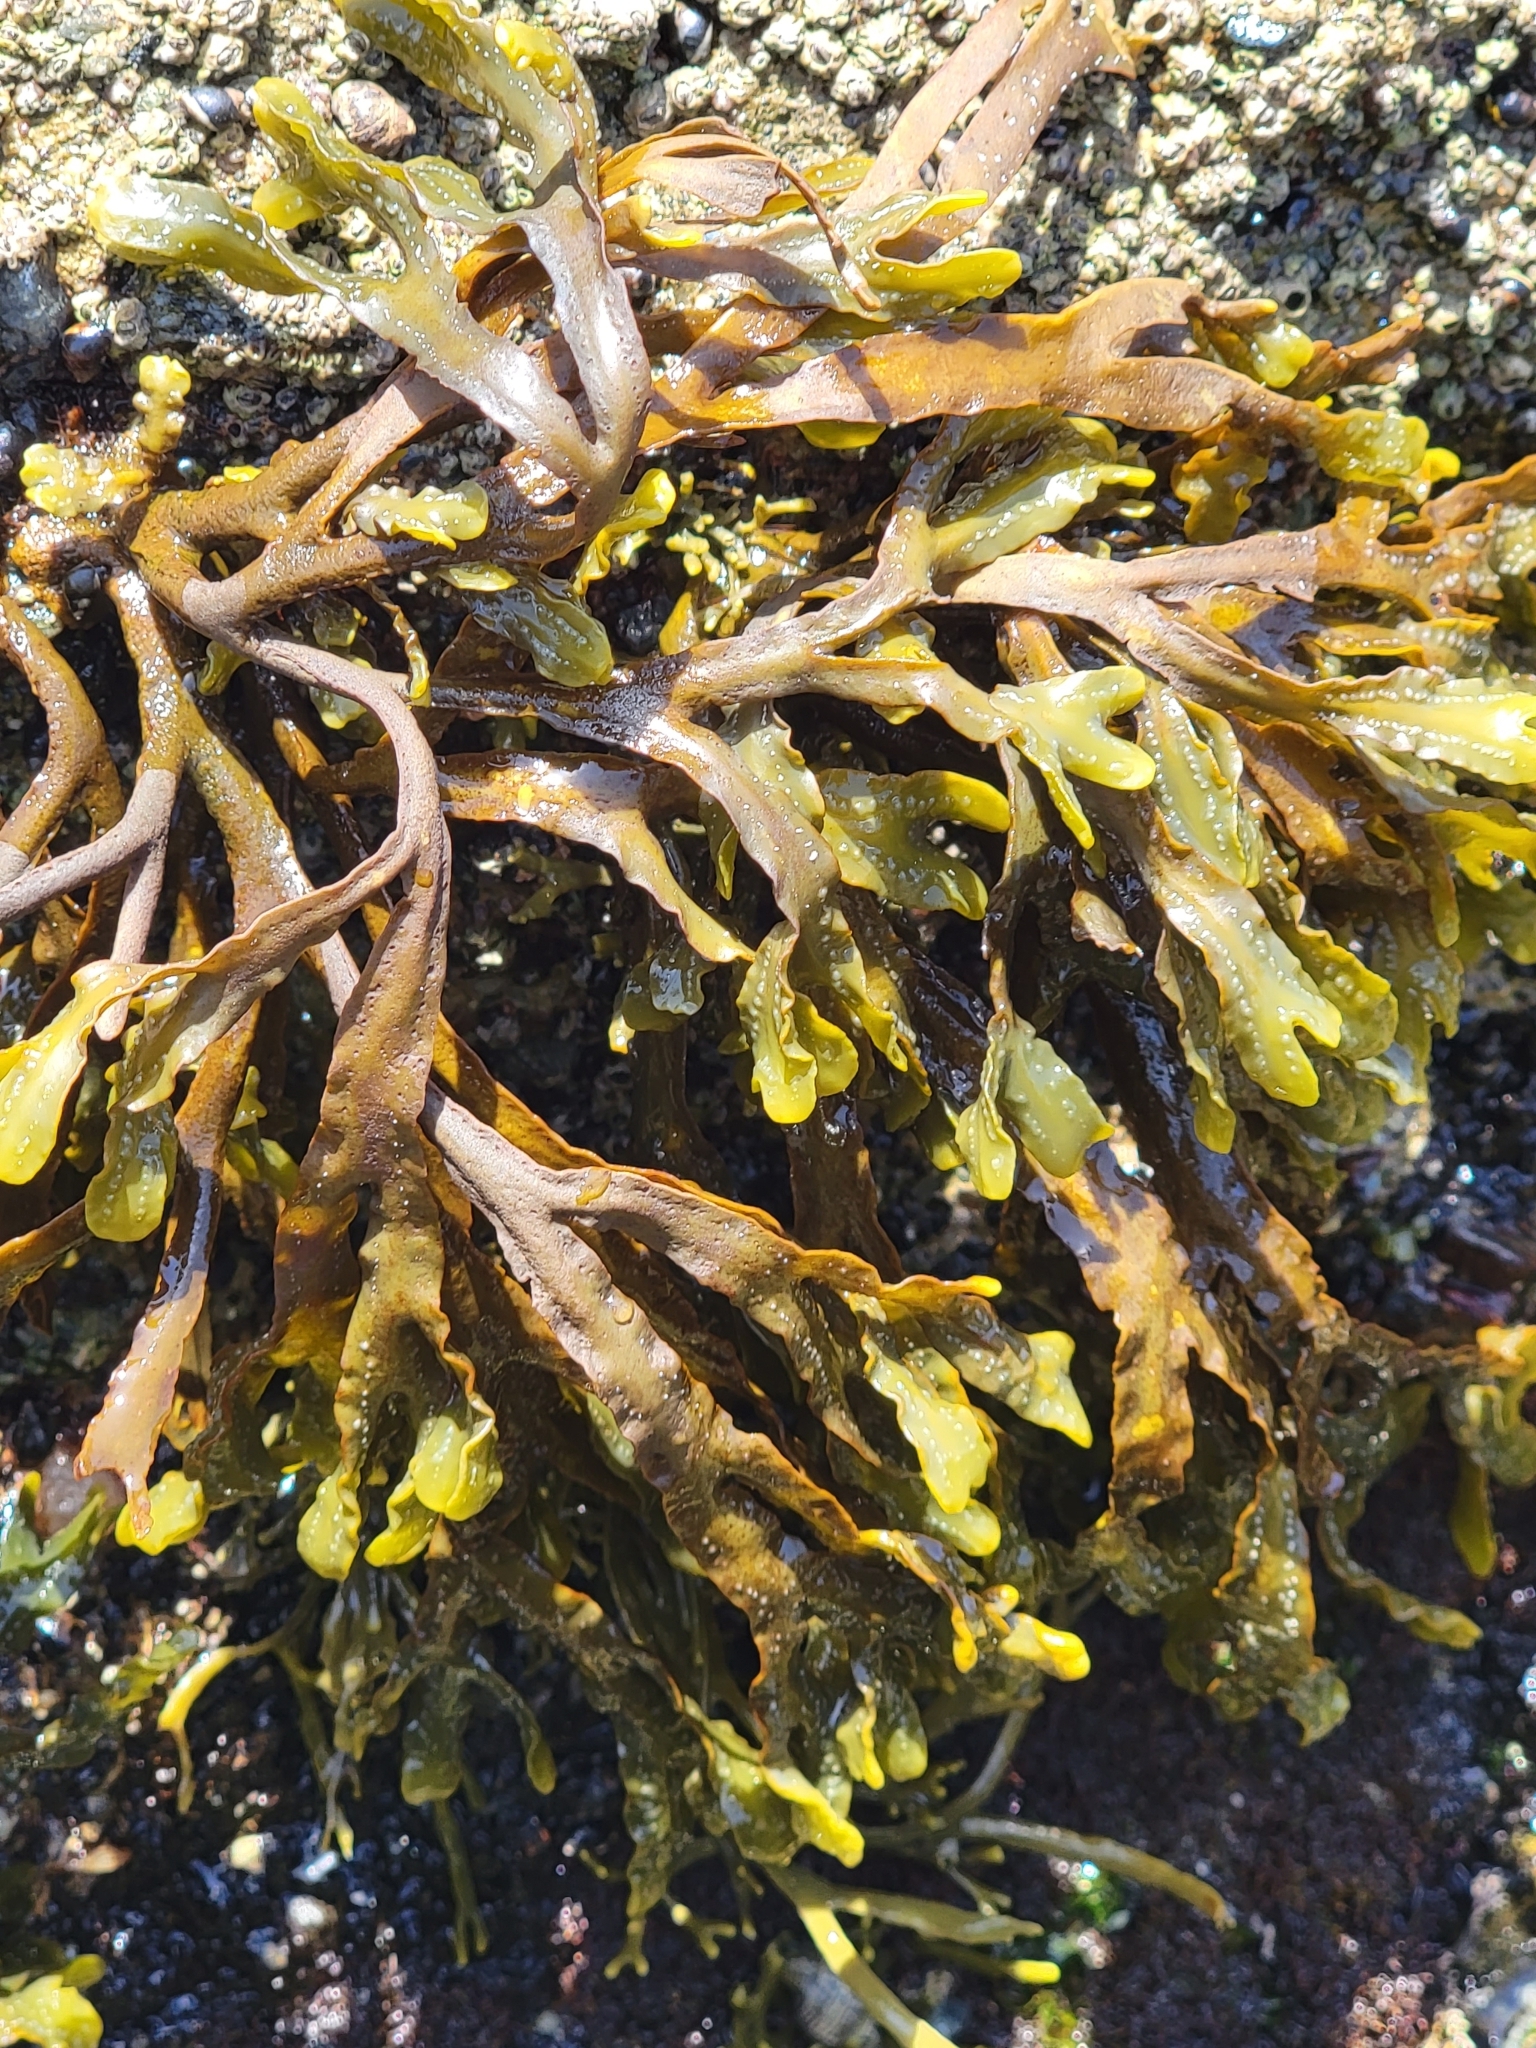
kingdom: Chromista
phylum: Ochrophyta
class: Phaeophyceae
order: Fucales
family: Fucaceae
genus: Pelvetiopsis
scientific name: Pelvetiopsis
